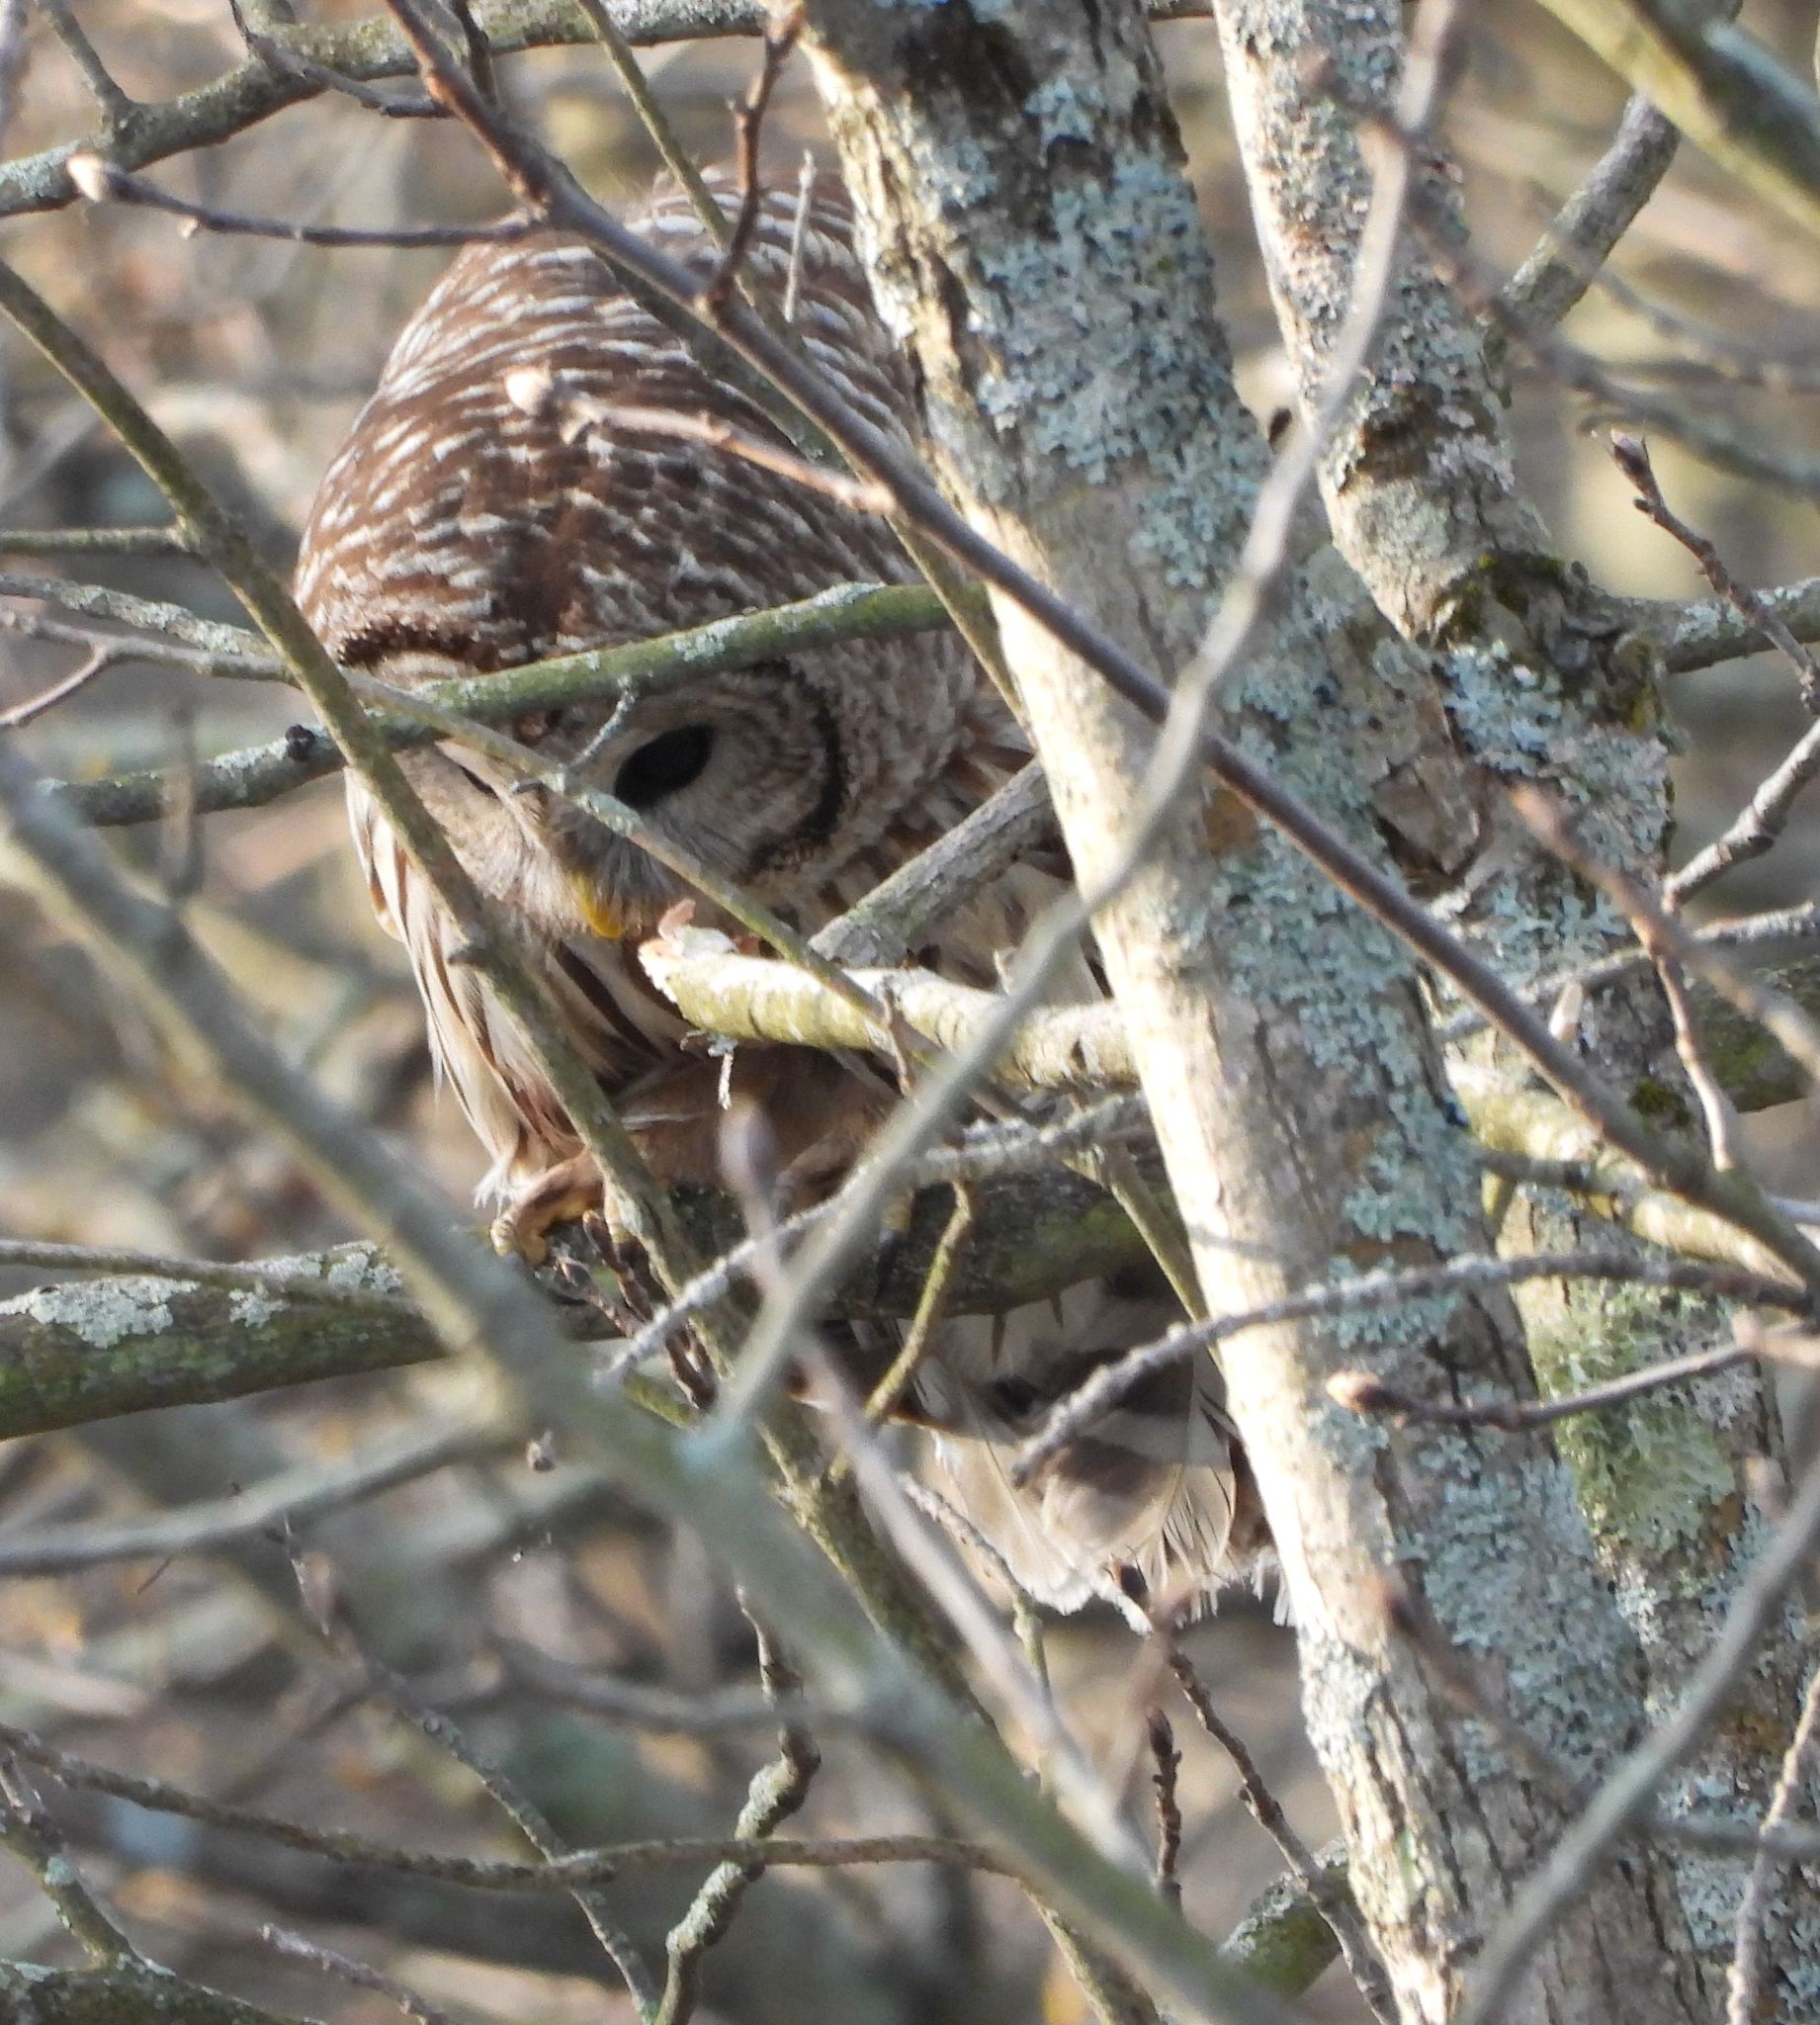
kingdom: Animalia
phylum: Chordata
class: Aves
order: Strigiformes
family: Strigidae
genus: Strix
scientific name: Strix varia
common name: Barred owl
